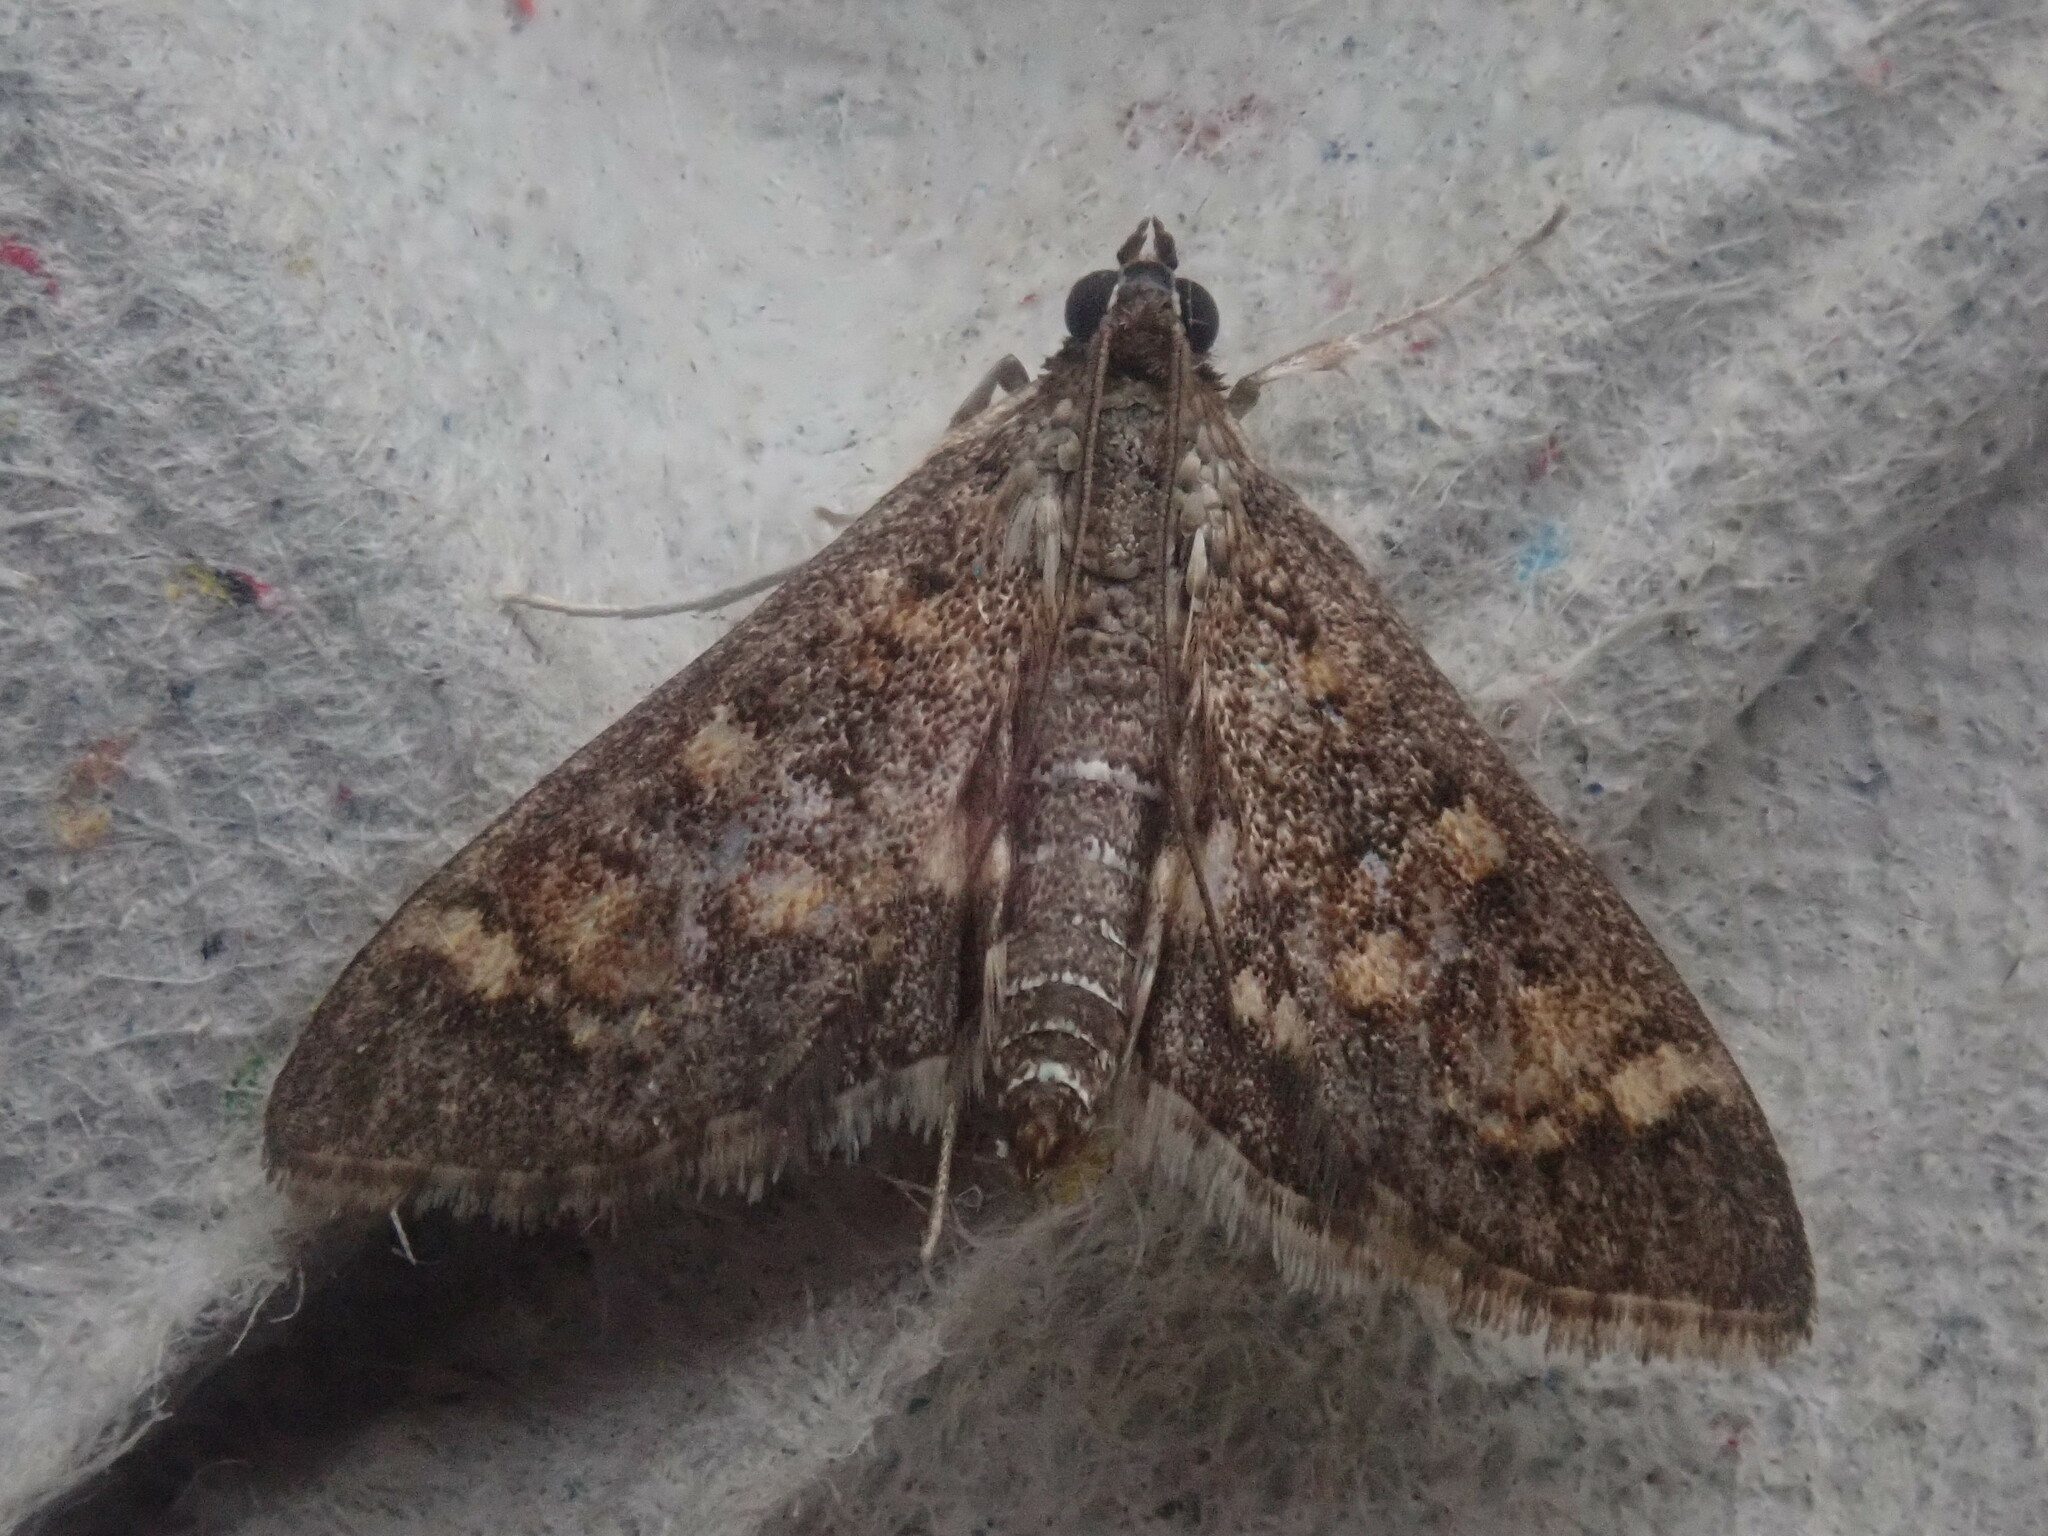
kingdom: Animalia
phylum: Arthropoda
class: Insecta
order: Lepidoptera
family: Crambidae
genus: Epipagis
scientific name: Epipagis adipaloides
